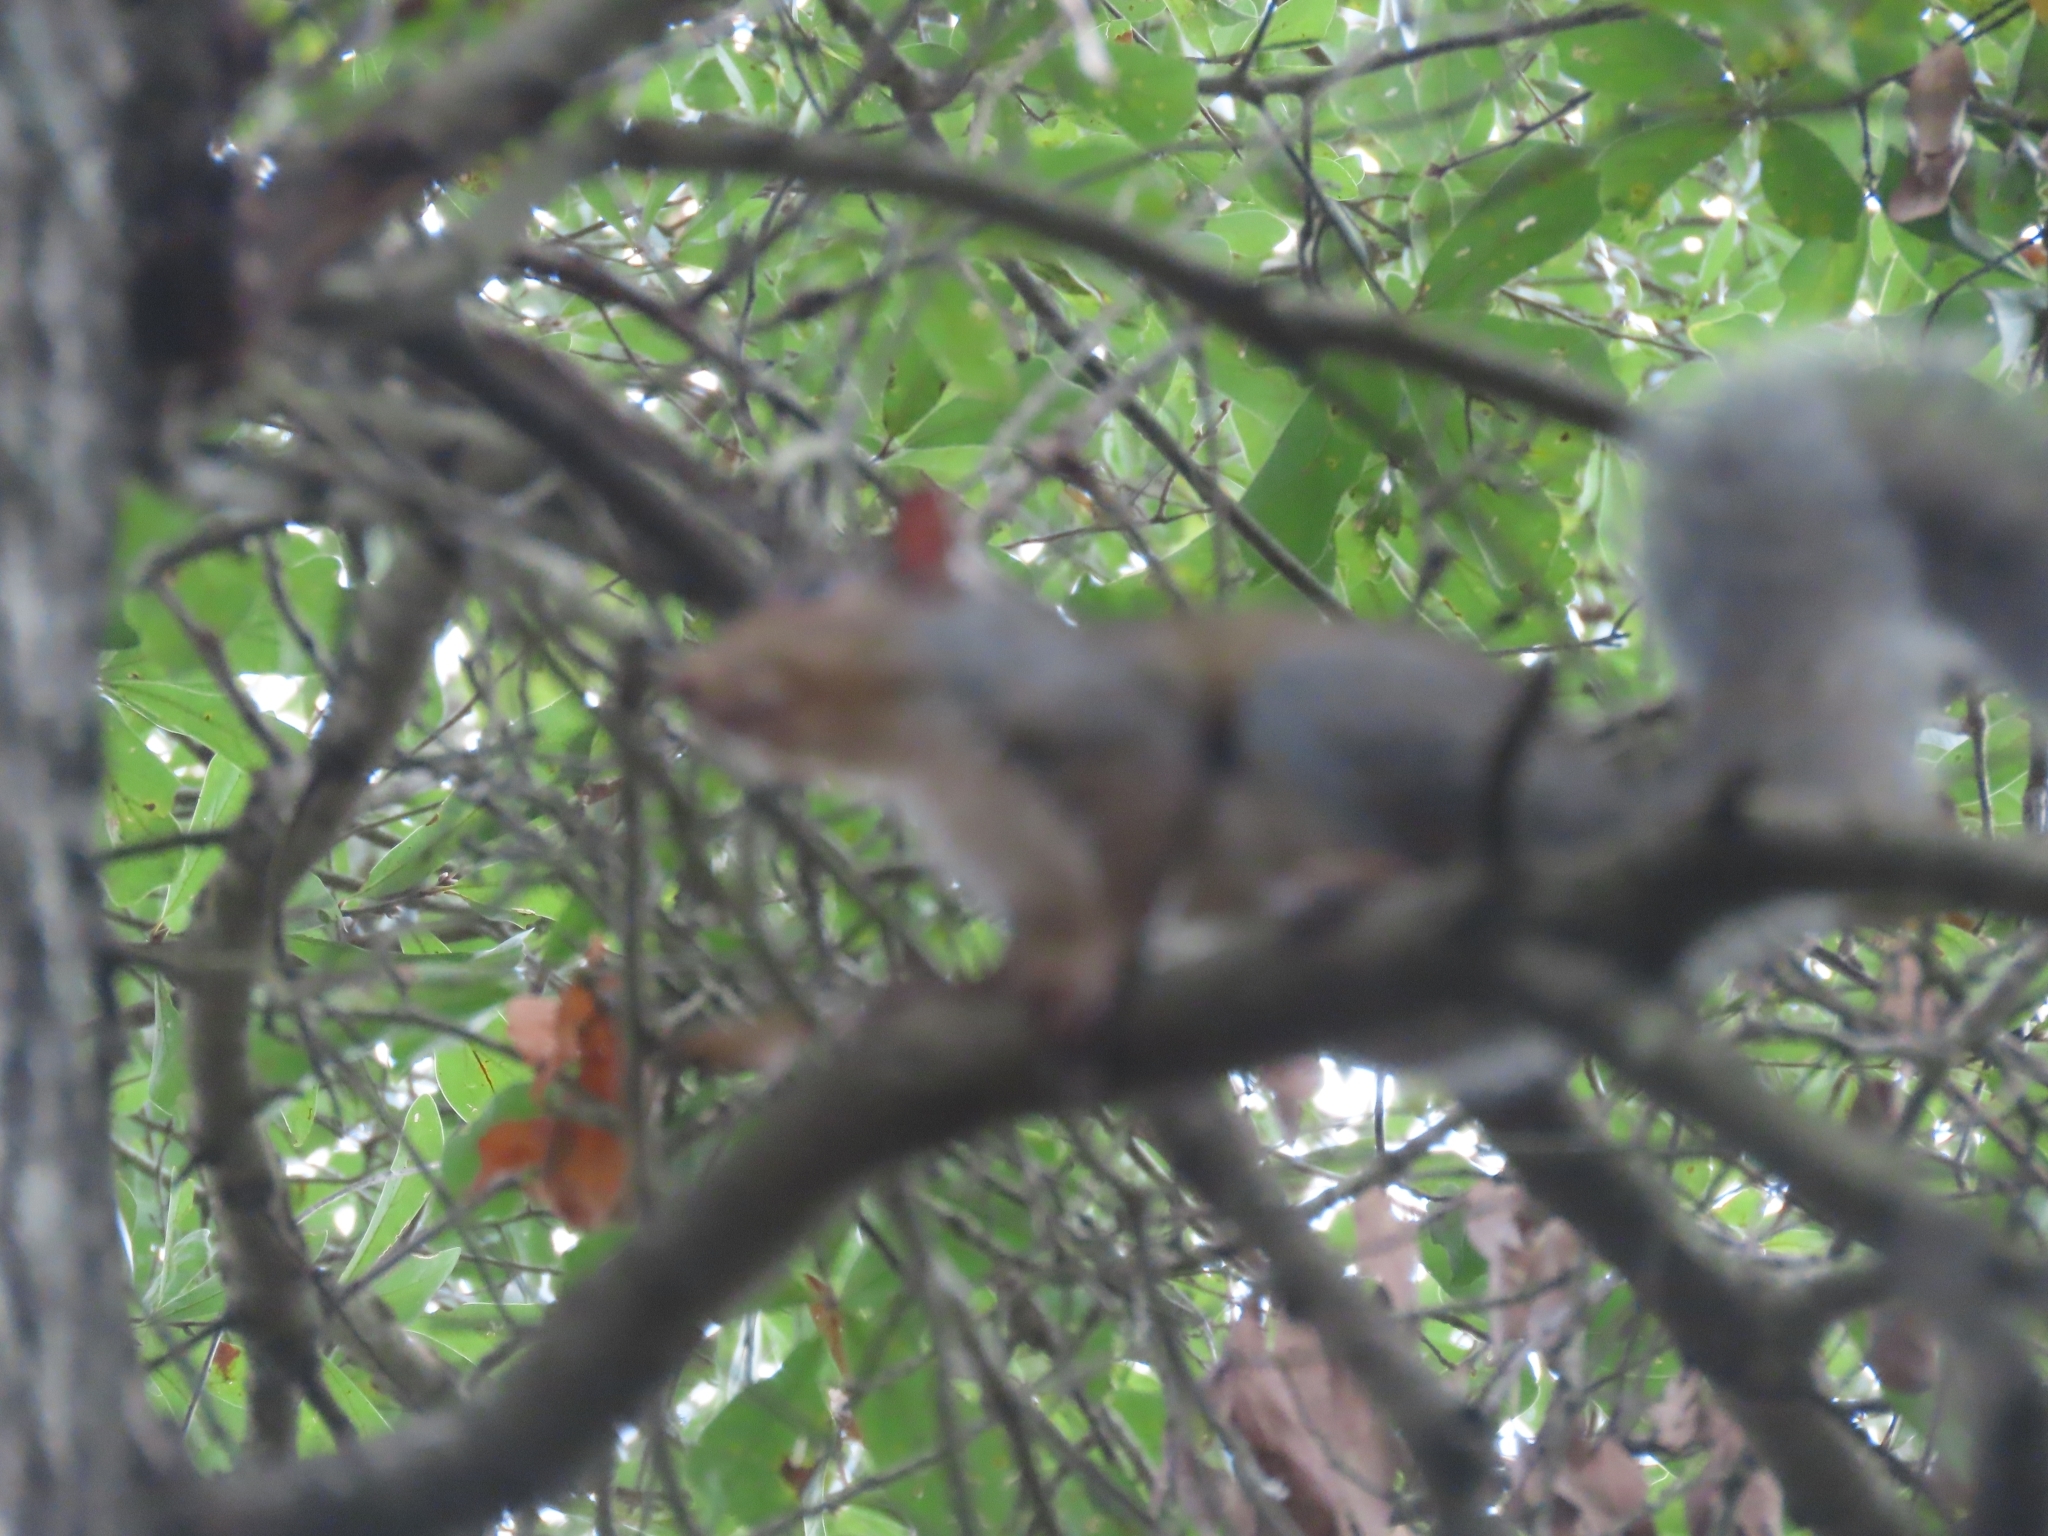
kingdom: Animalia
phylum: Chordata
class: Mammalia
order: Rodentia
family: Sciuridae
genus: Sciurus
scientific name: Sciurus carolinensis
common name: Eastern gray squirrel
